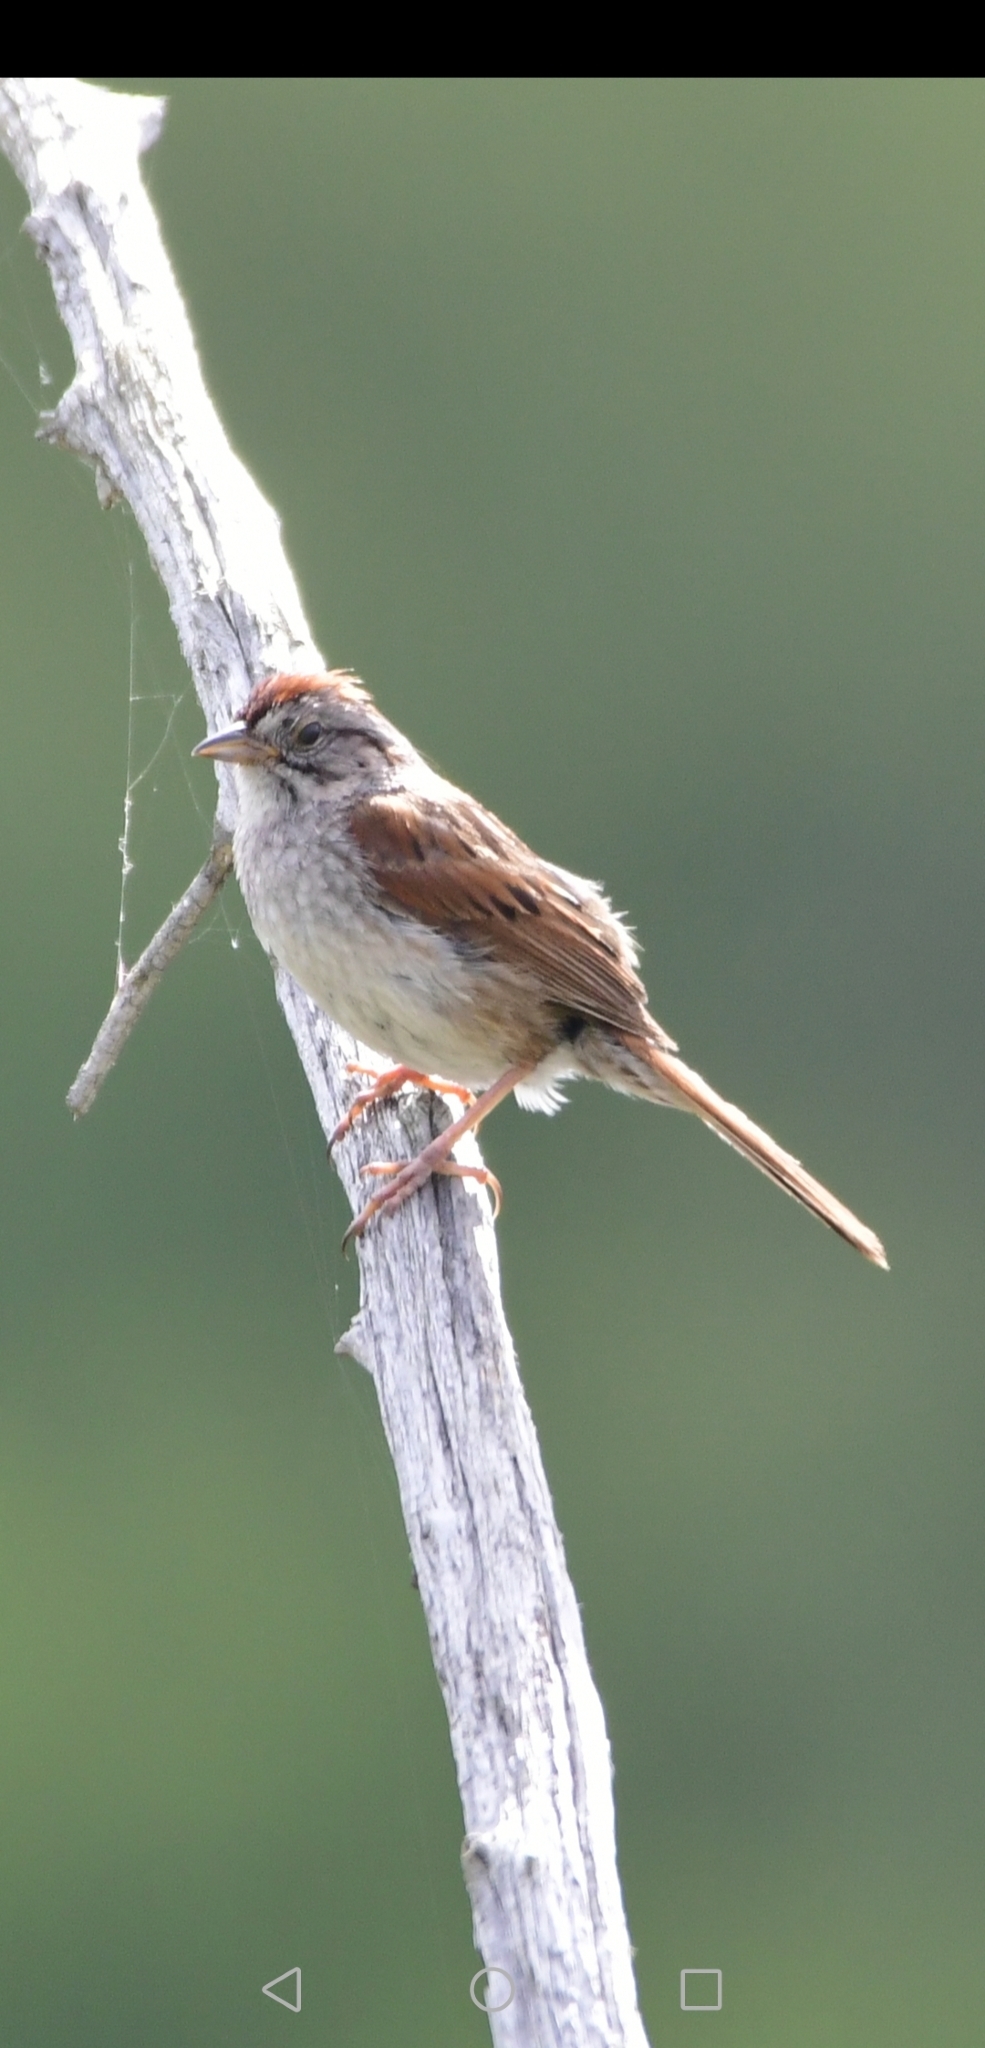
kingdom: Animalia
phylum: Chordata
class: Aves
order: Passeriformes
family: Passerellidae
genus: Melospiza
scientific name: Melospiza georgiana
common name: Swamp sparrow
